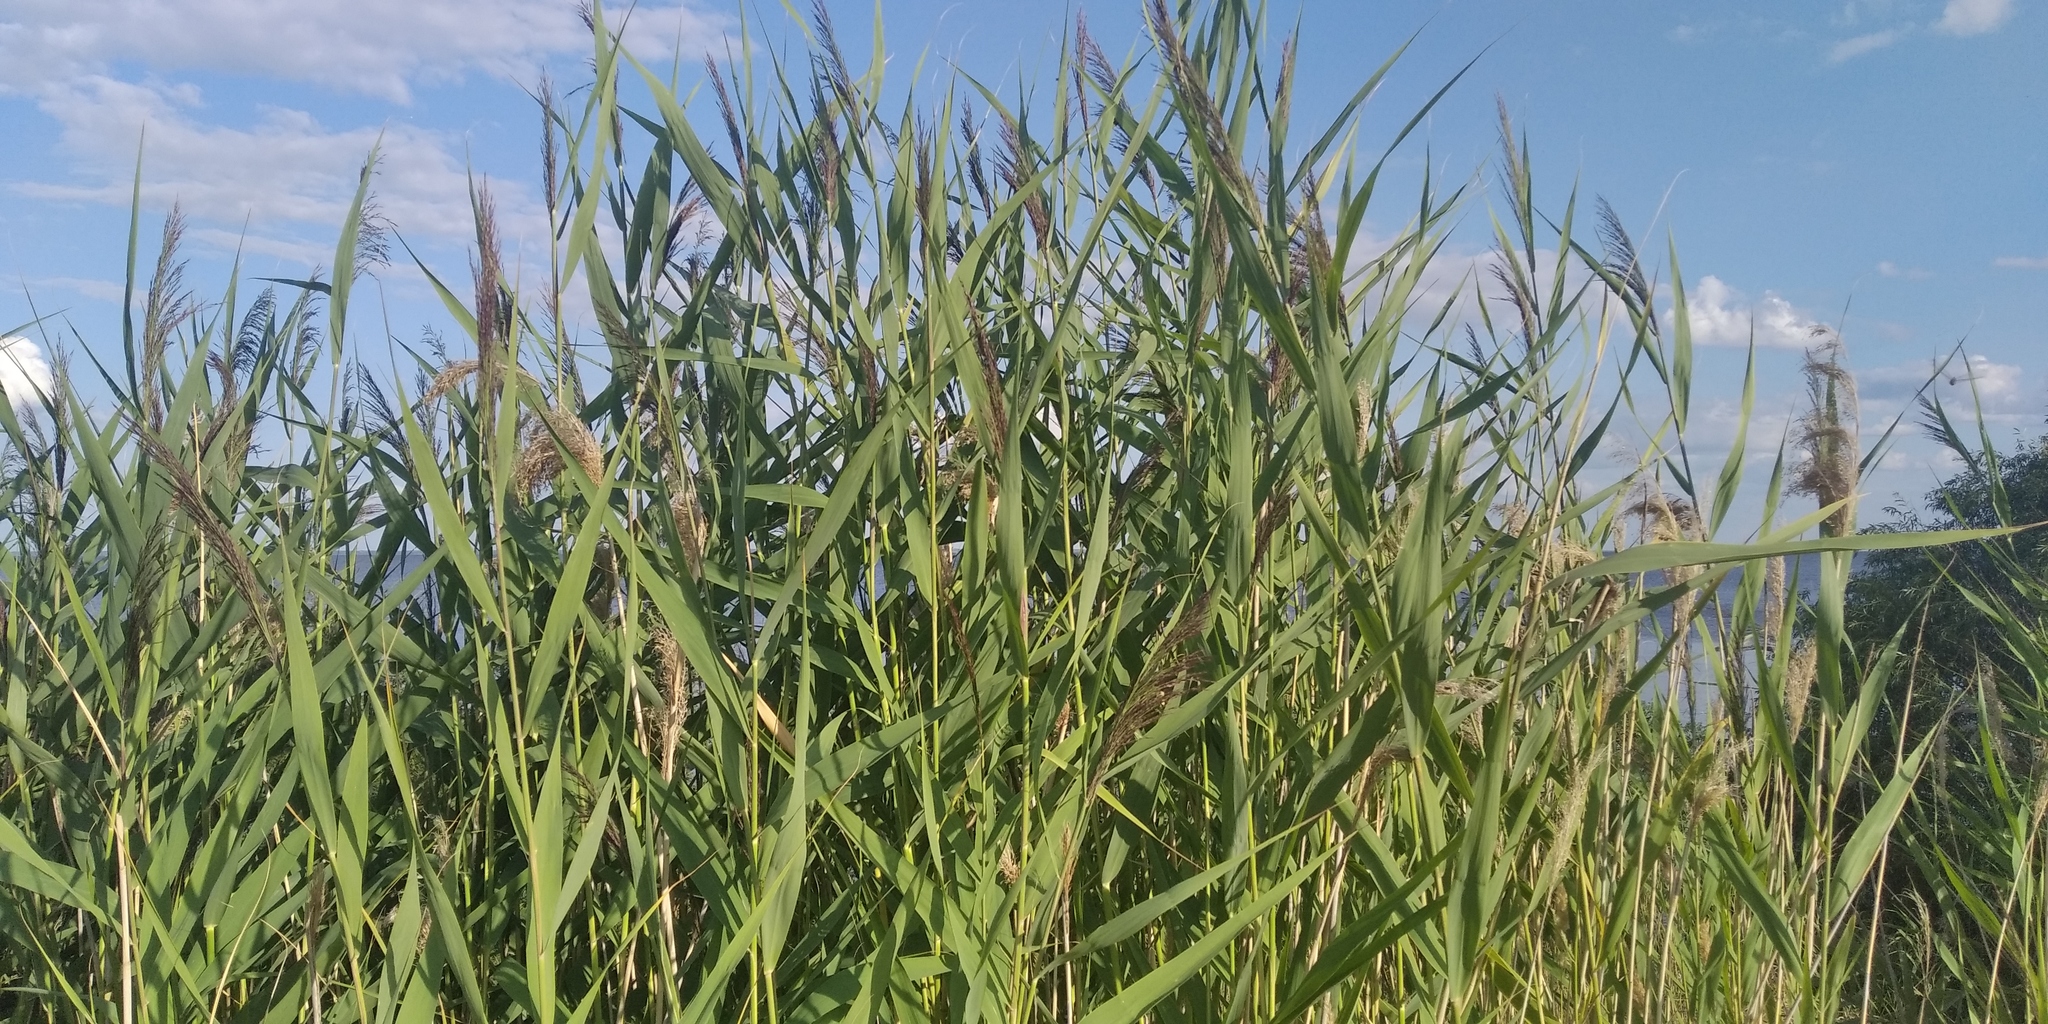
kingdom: Plantae
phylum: Tracheophyta
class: Liliopsida
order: Poales
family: Poaceae
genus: Phragmites
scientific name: Phragmites australis
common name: Common reed
